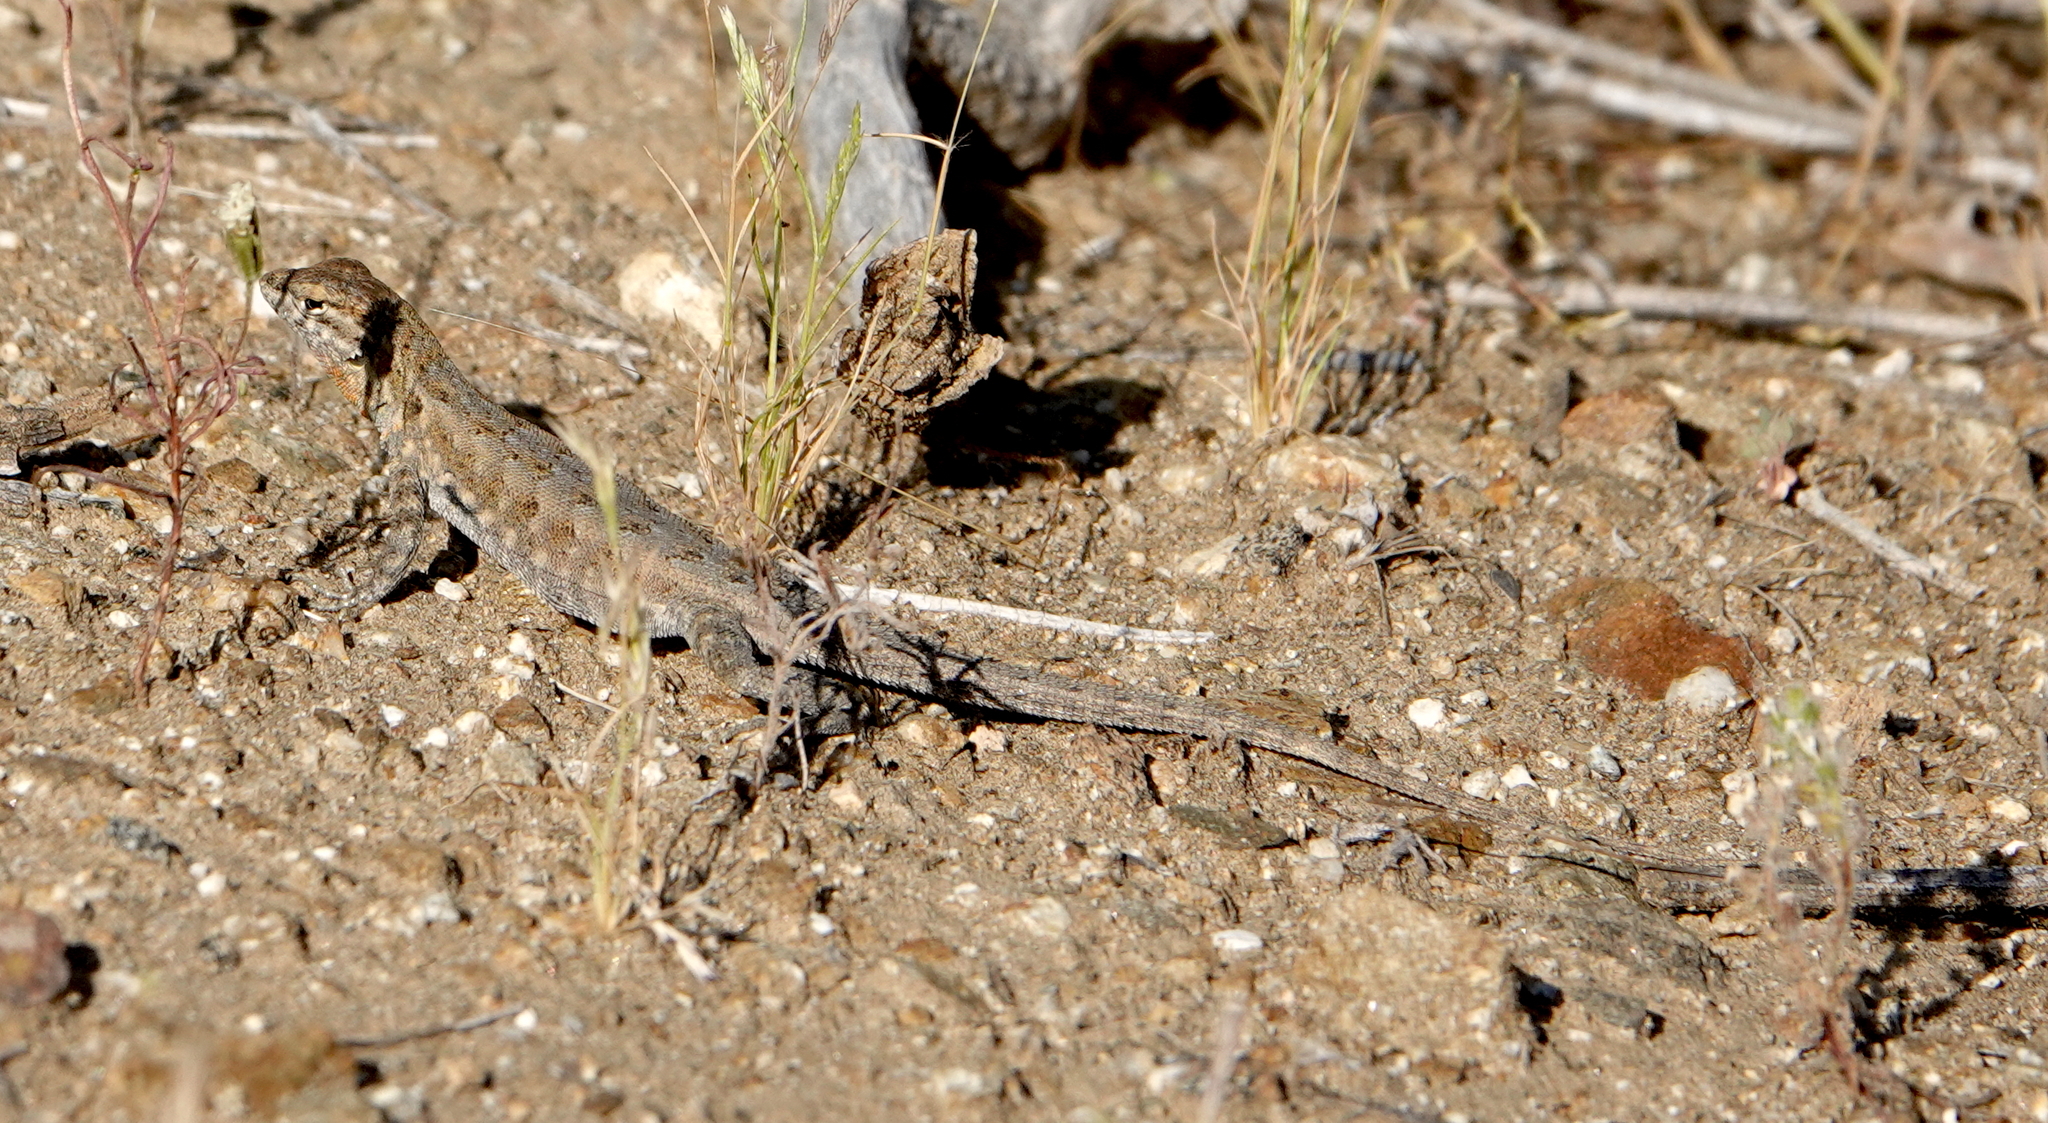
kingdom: Animalia
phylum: Chordata
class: Squamata
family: Phrynosomatidae
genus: Uta
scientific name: Uta stansburiana
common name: Side-blotched lizard
